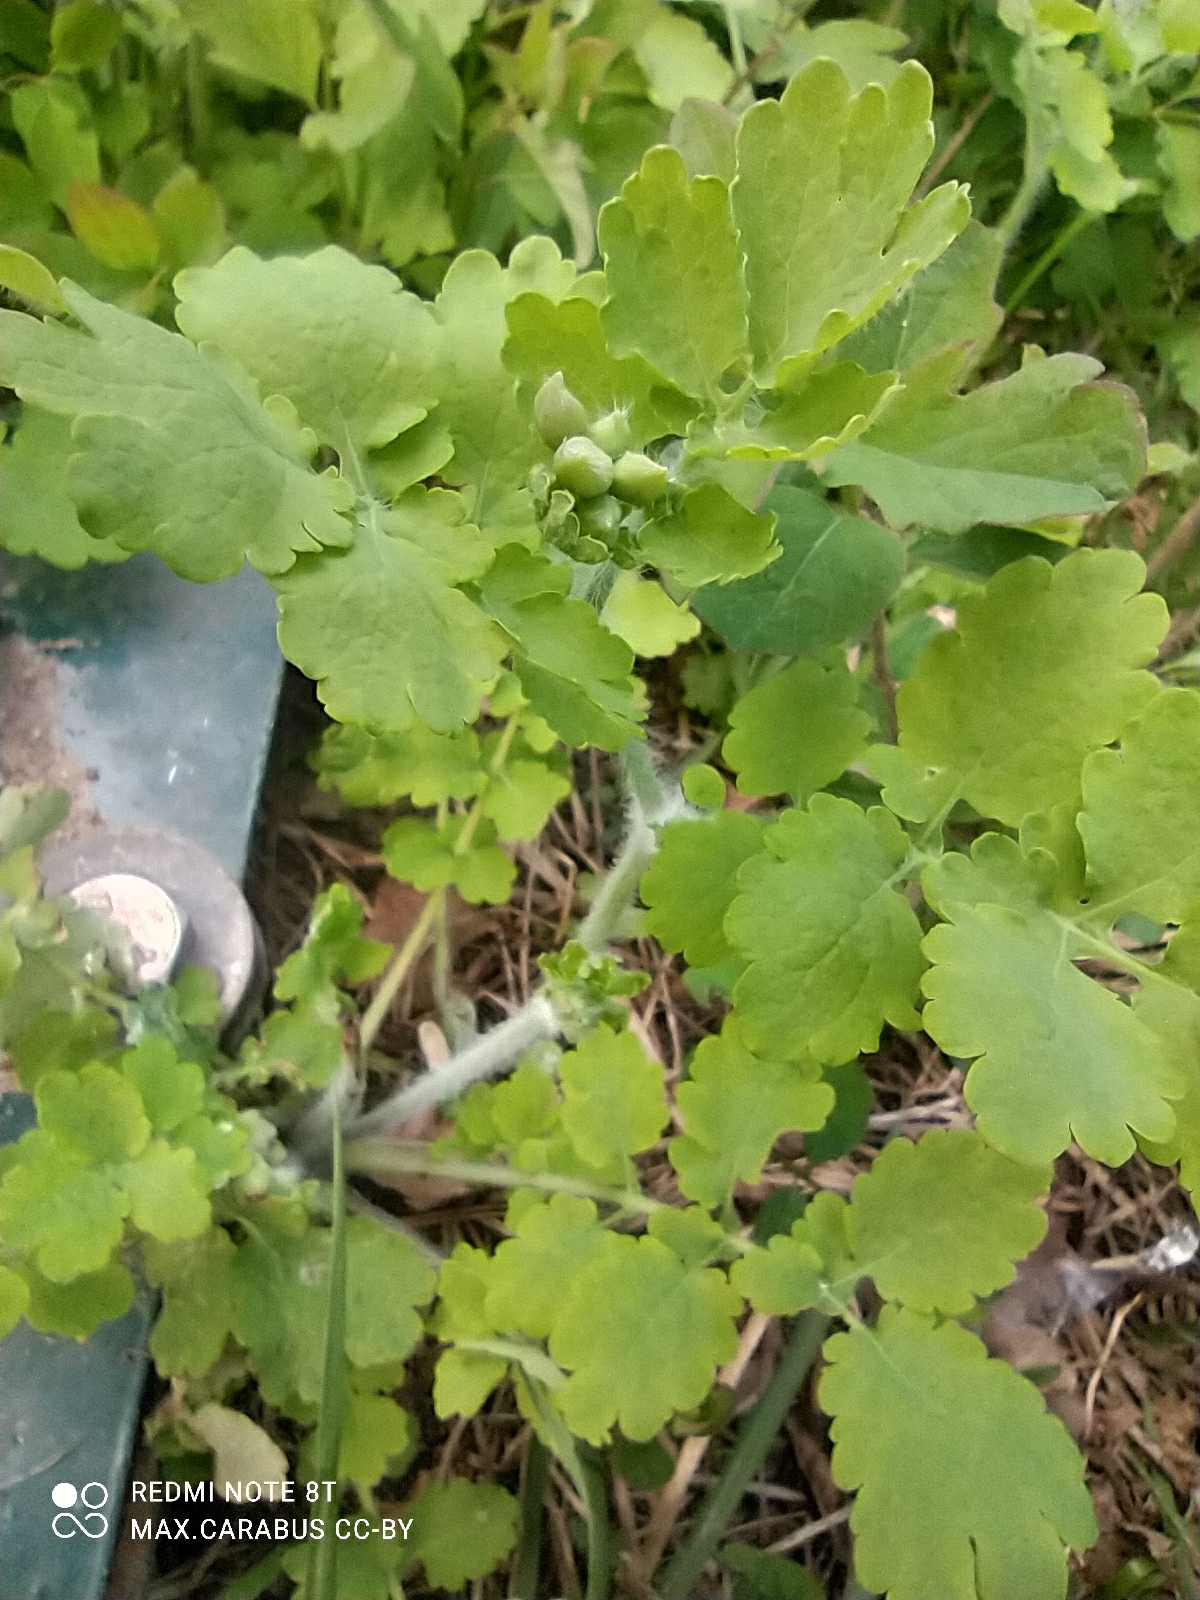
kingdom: Plantae
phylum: Tracheophyta
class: Magnoliopsida
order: Ranunculales
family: Papaveraceae
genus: Chelidonium
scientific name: Chelidonium majus
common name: Greater celandine
